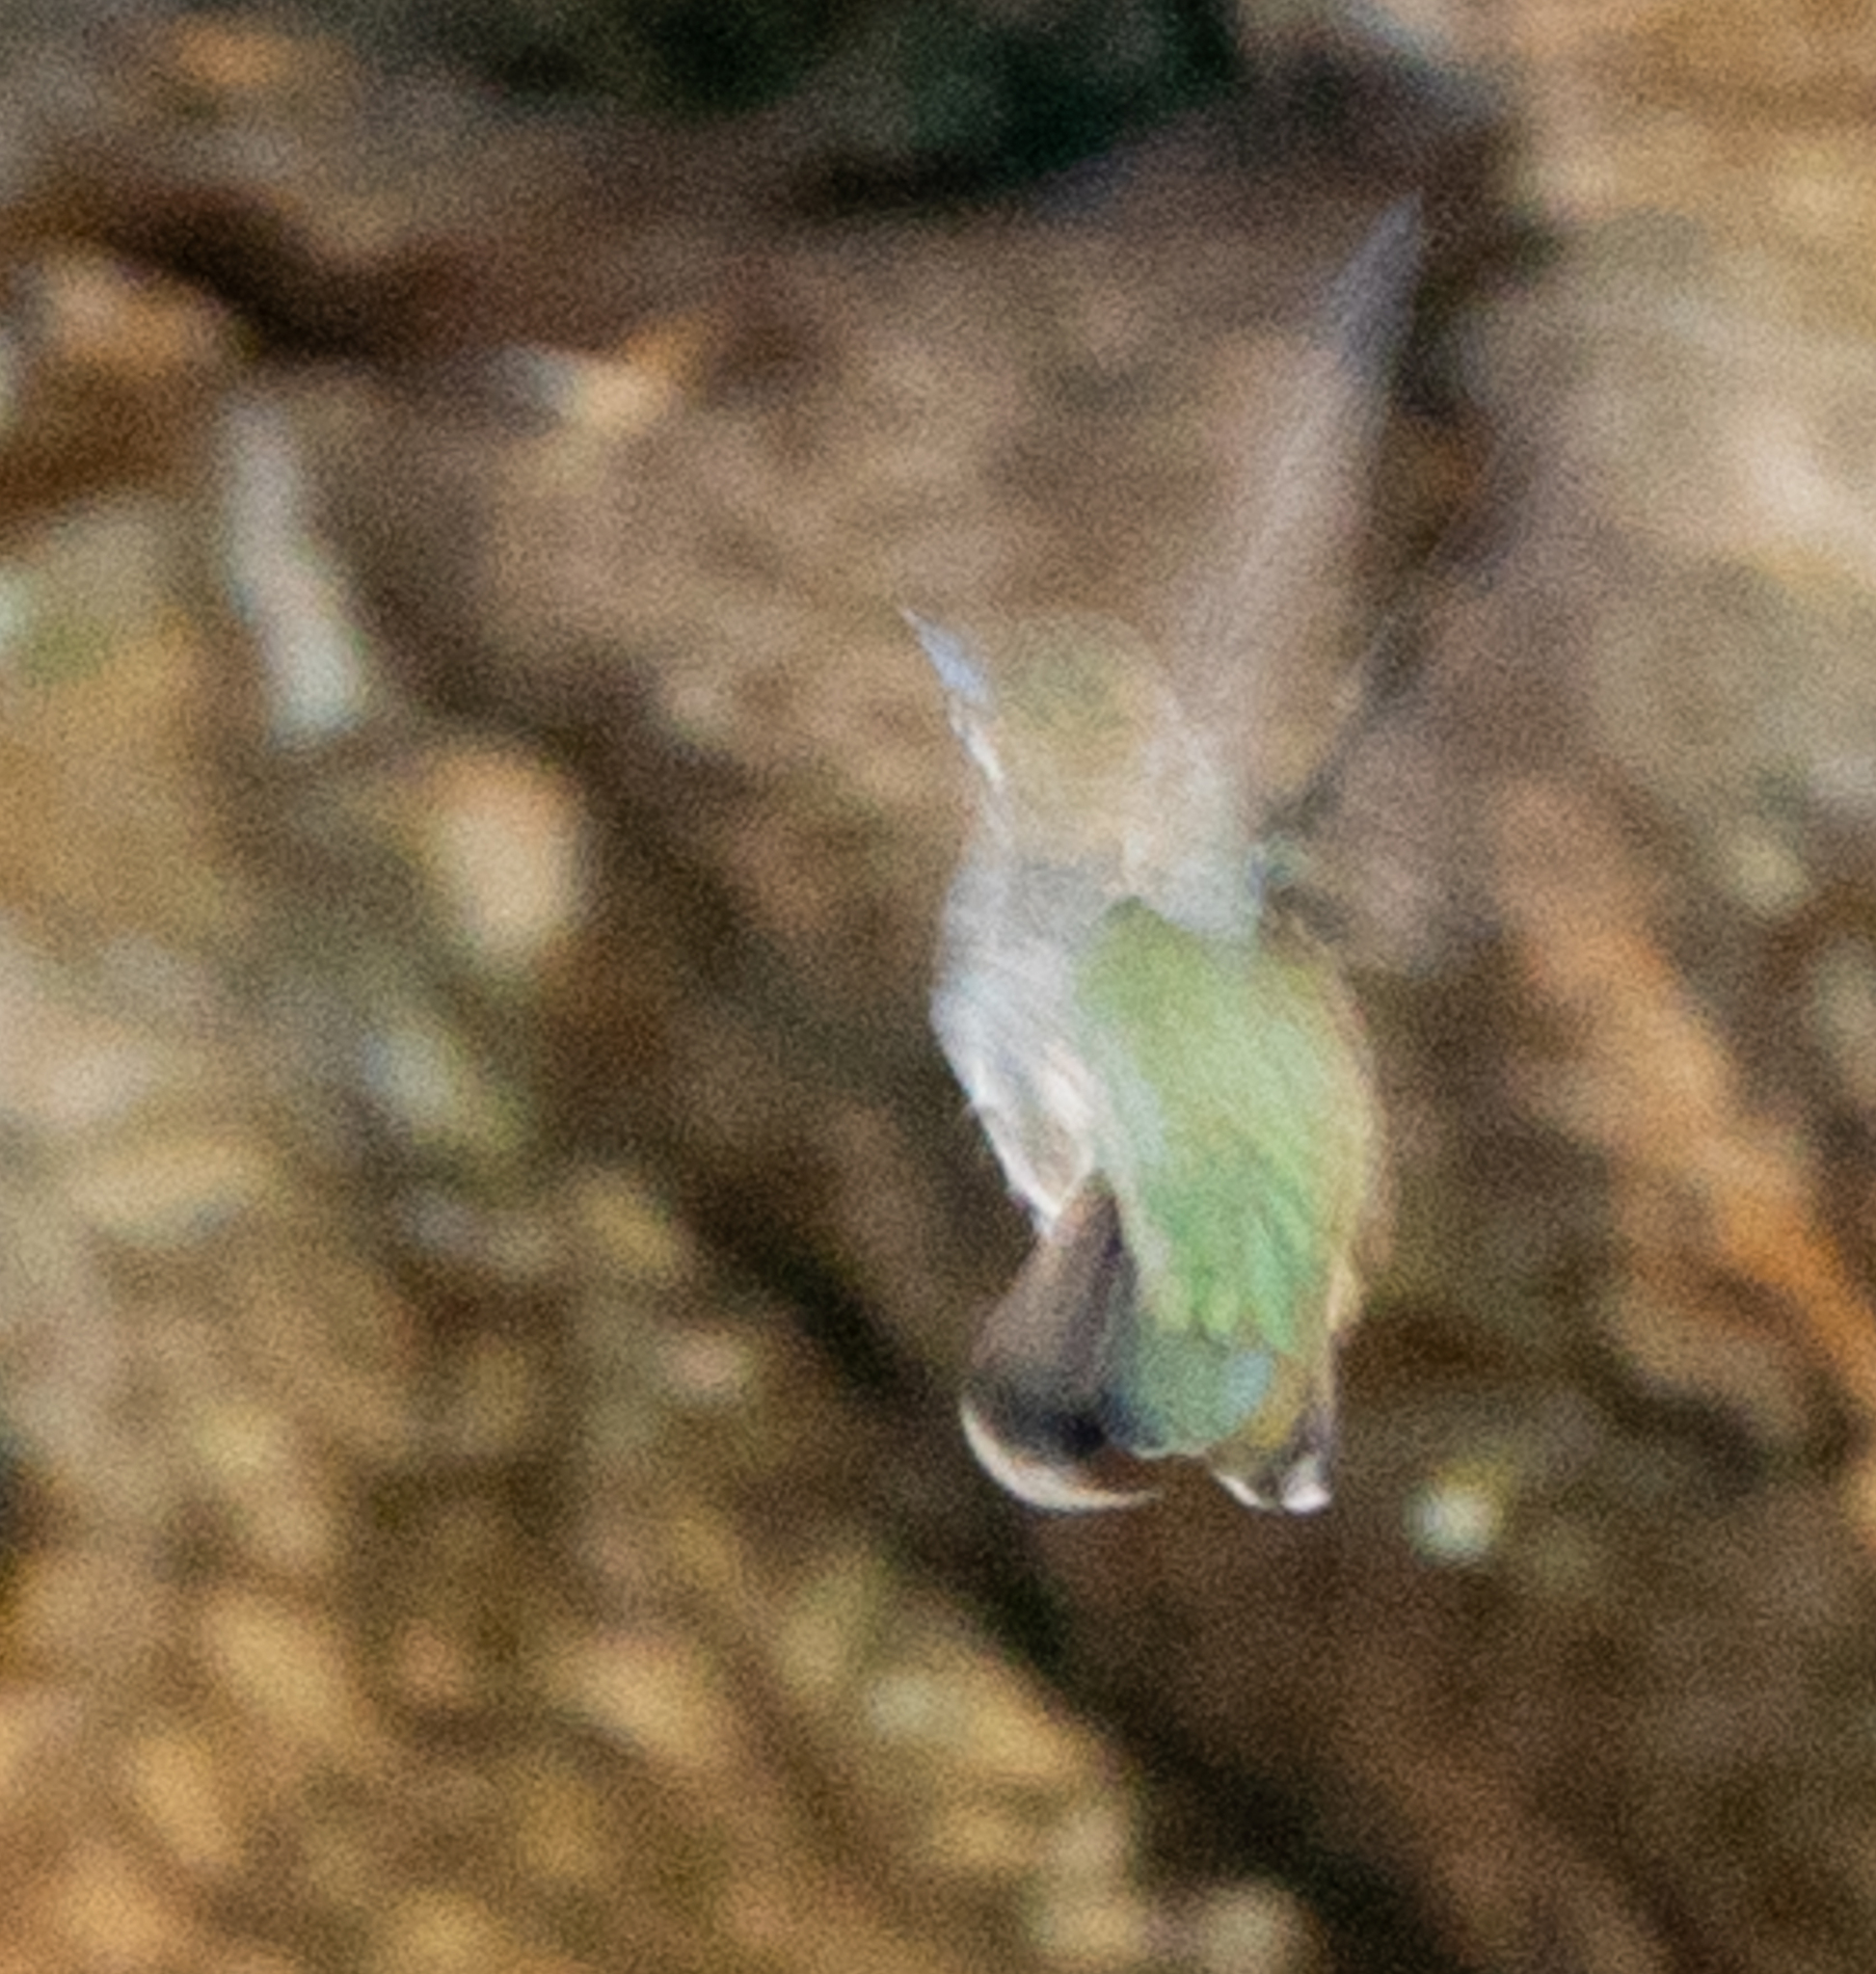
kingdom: Animalia
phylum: Chordata
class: Aves
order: Apodiformes
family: Trochilidae
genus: Calypte
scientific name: Calypte anna
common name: Anna's hummingbird
